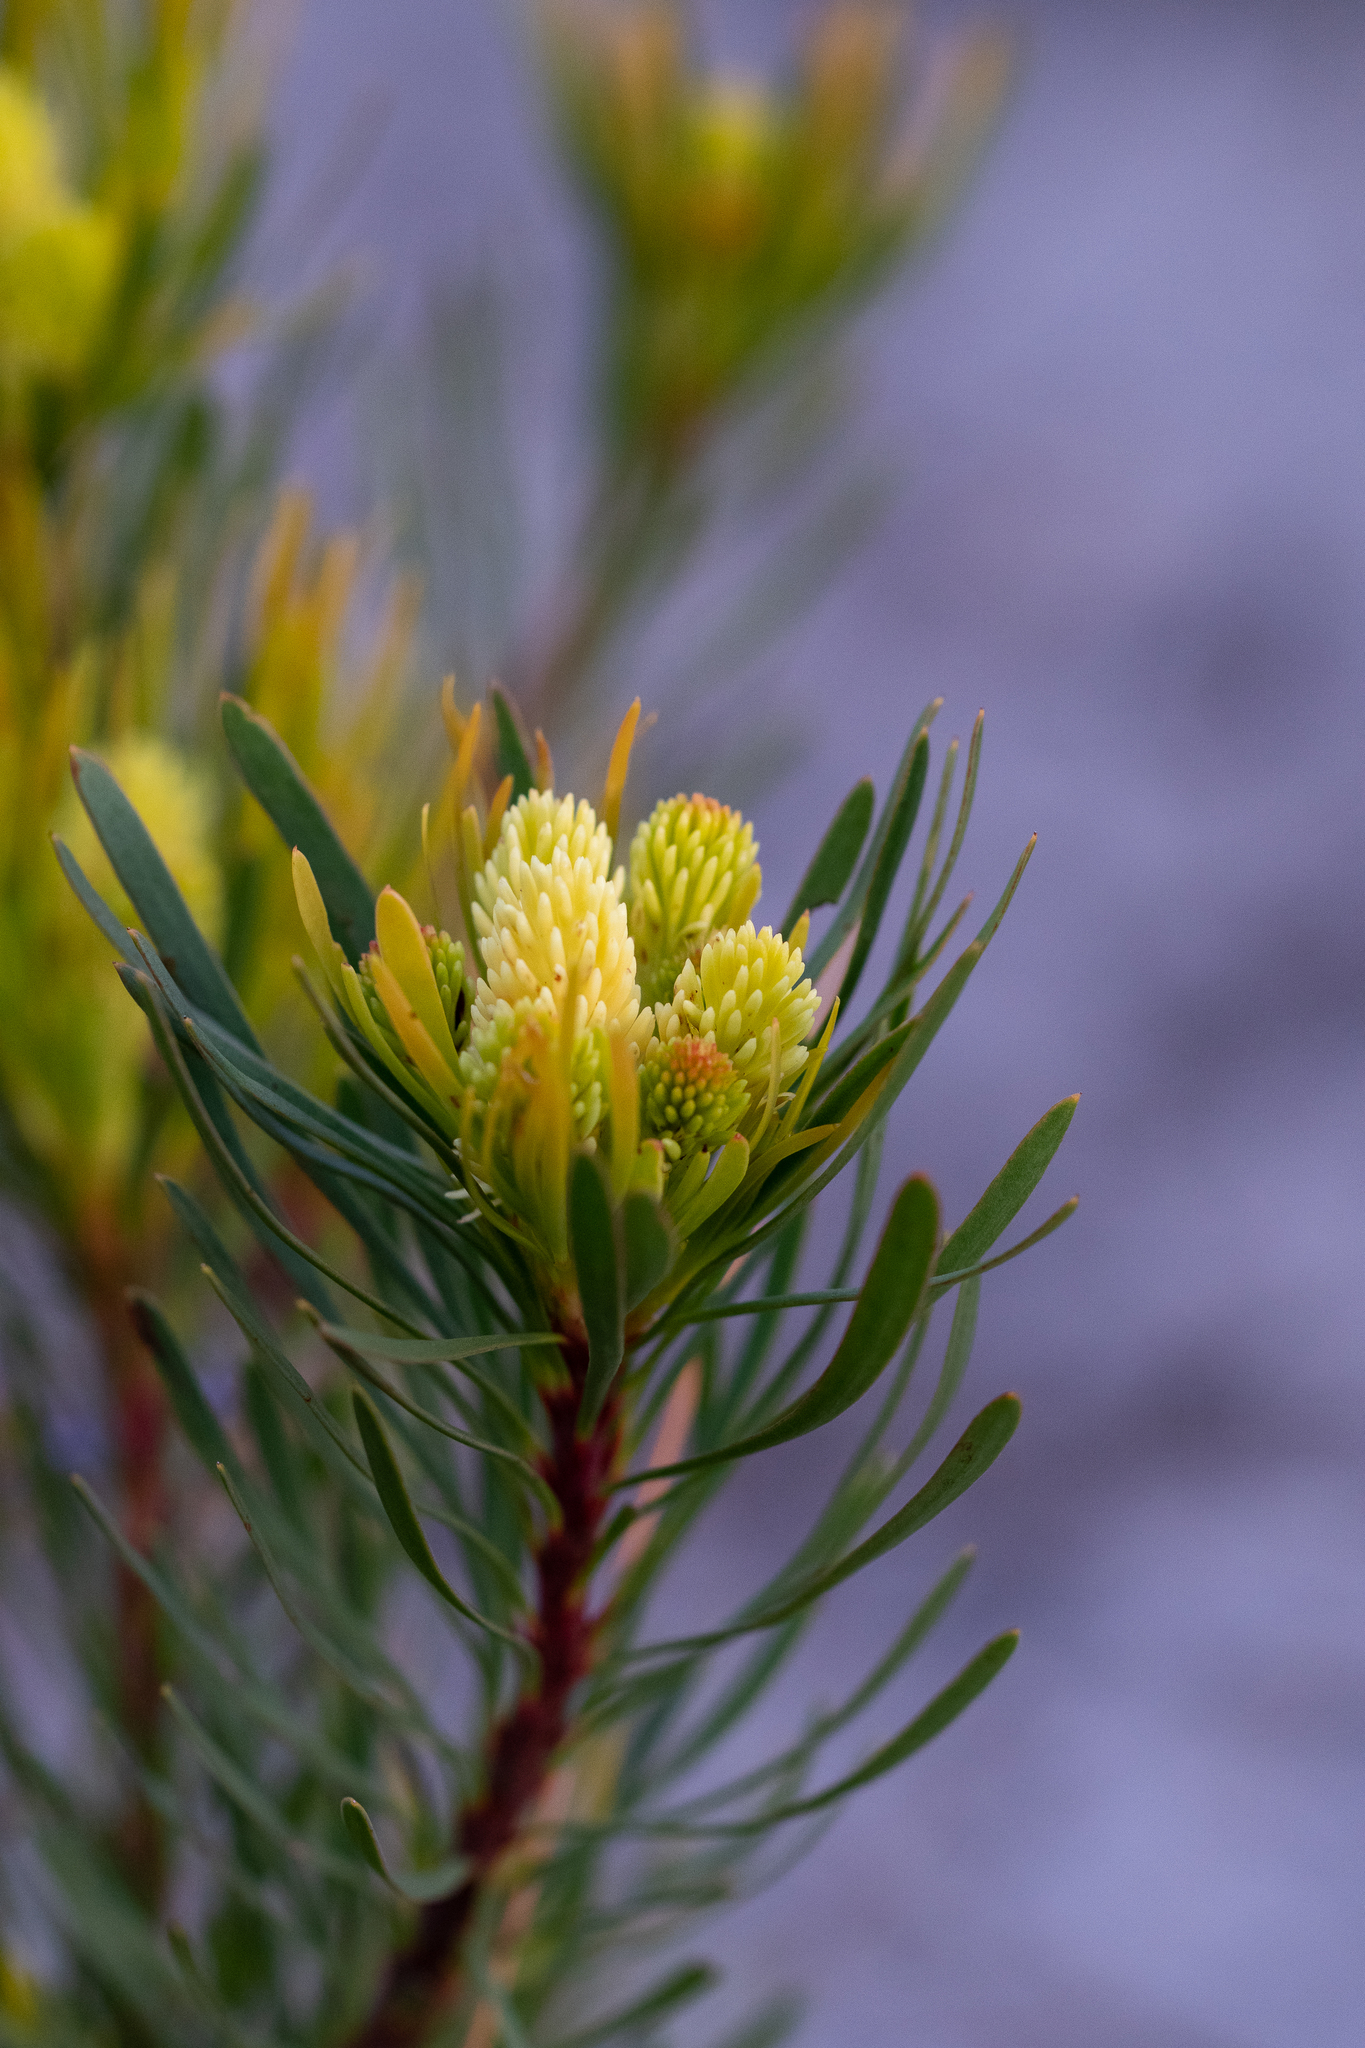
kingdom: Plantae
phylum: Tracheophyta
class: Magnoliopsida
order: Proteales
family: Proteaceae
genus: Aulax
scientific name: Aulax umbellata
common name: Broad-leaf featherbush
